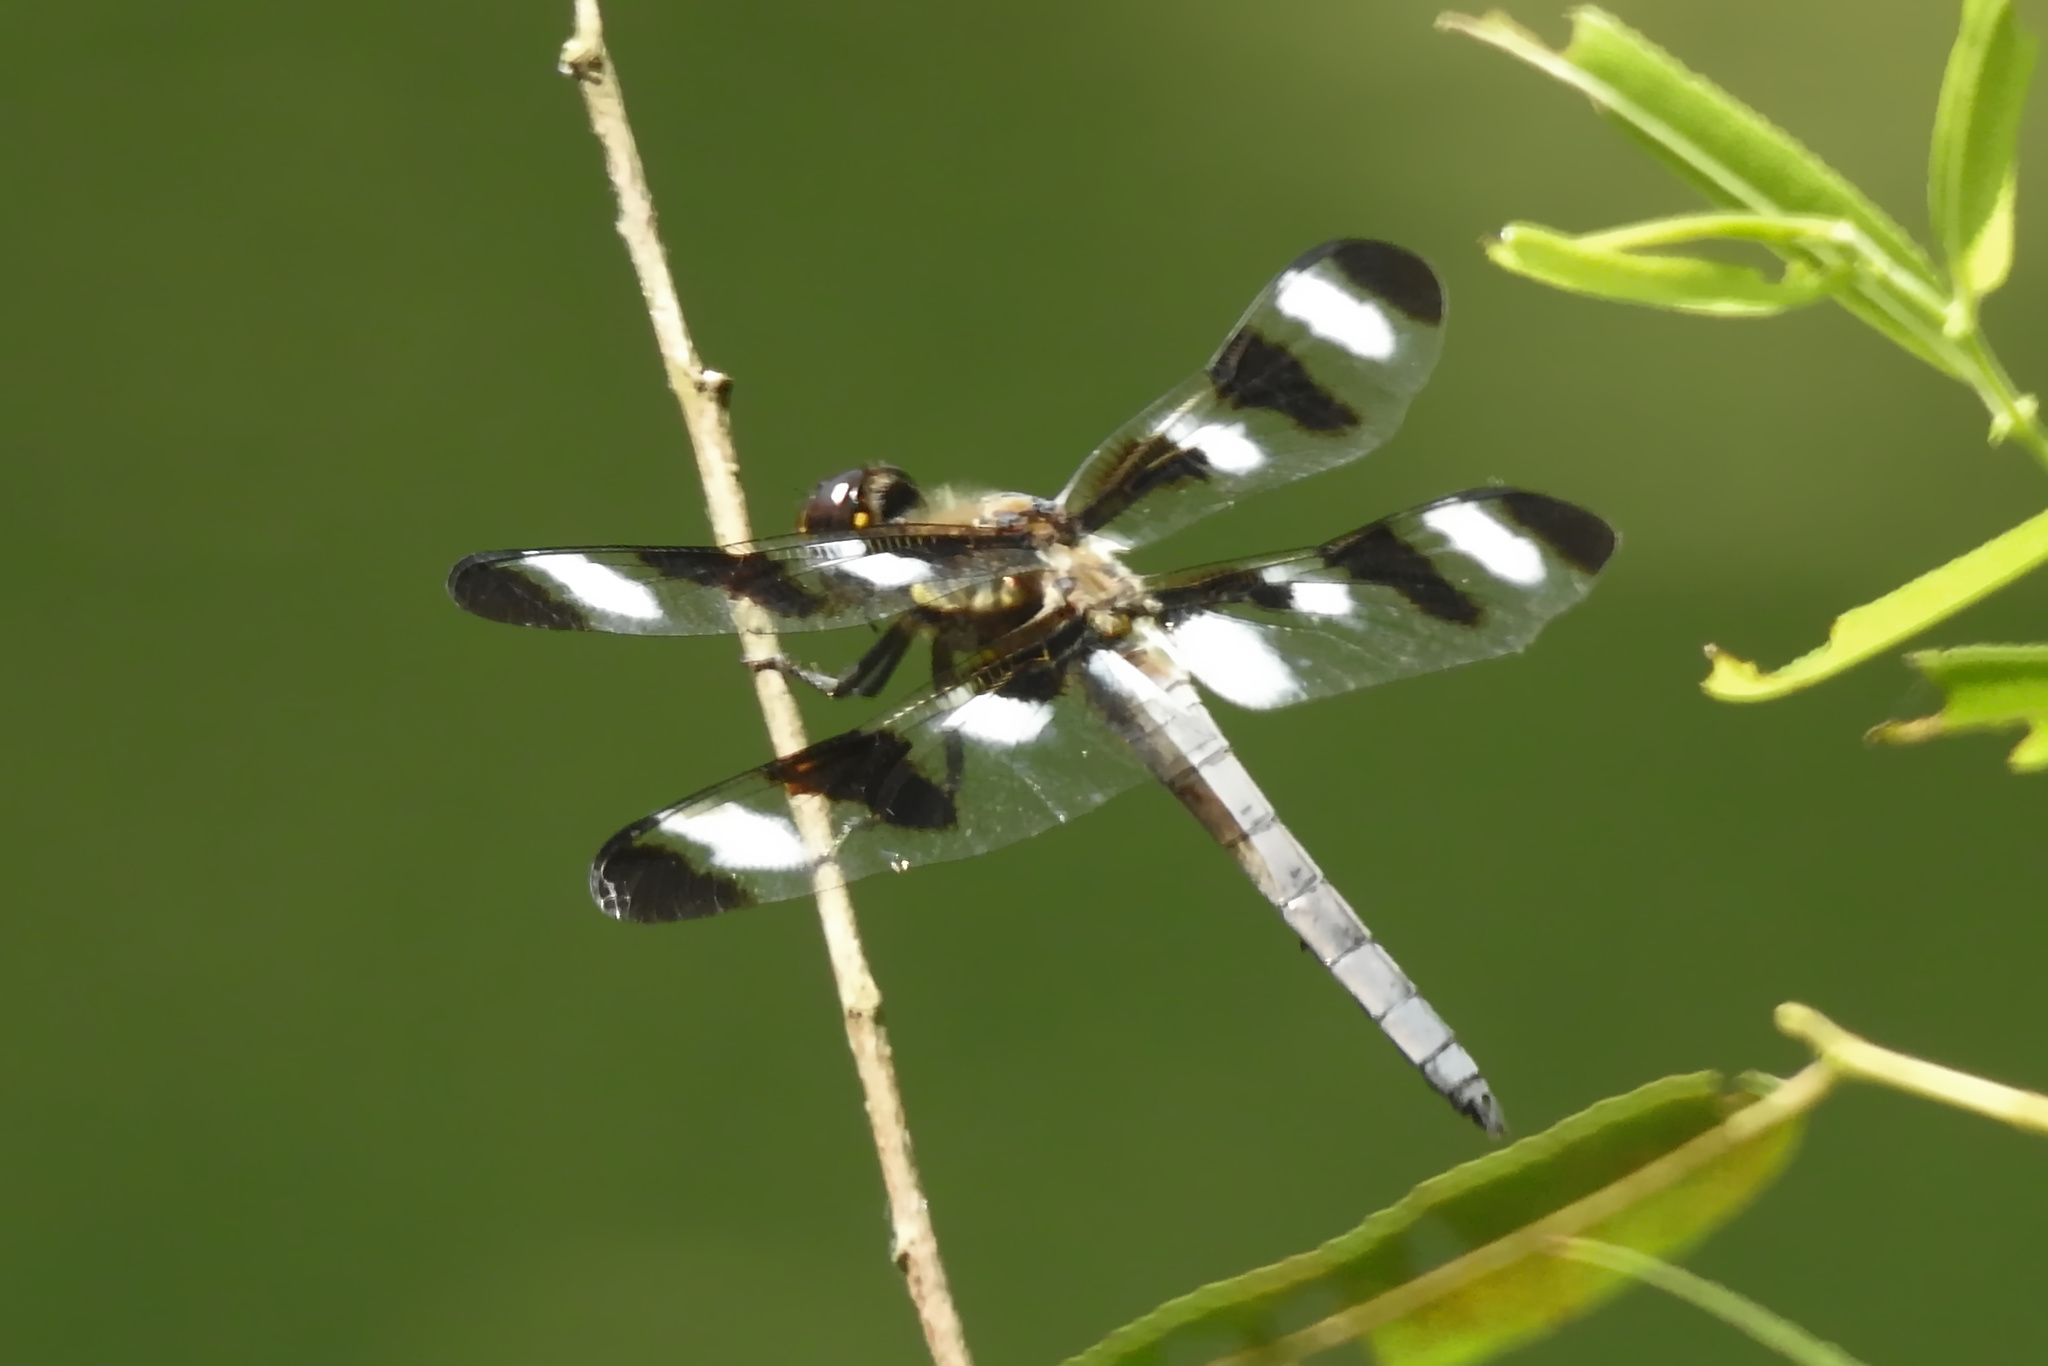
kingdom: Animalia
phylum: Arthropoda
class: Insecta
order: Odonata
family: Libellulidae
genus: Libellula
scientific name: Libellula pulchella
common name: Twelve-spotted skimmer
